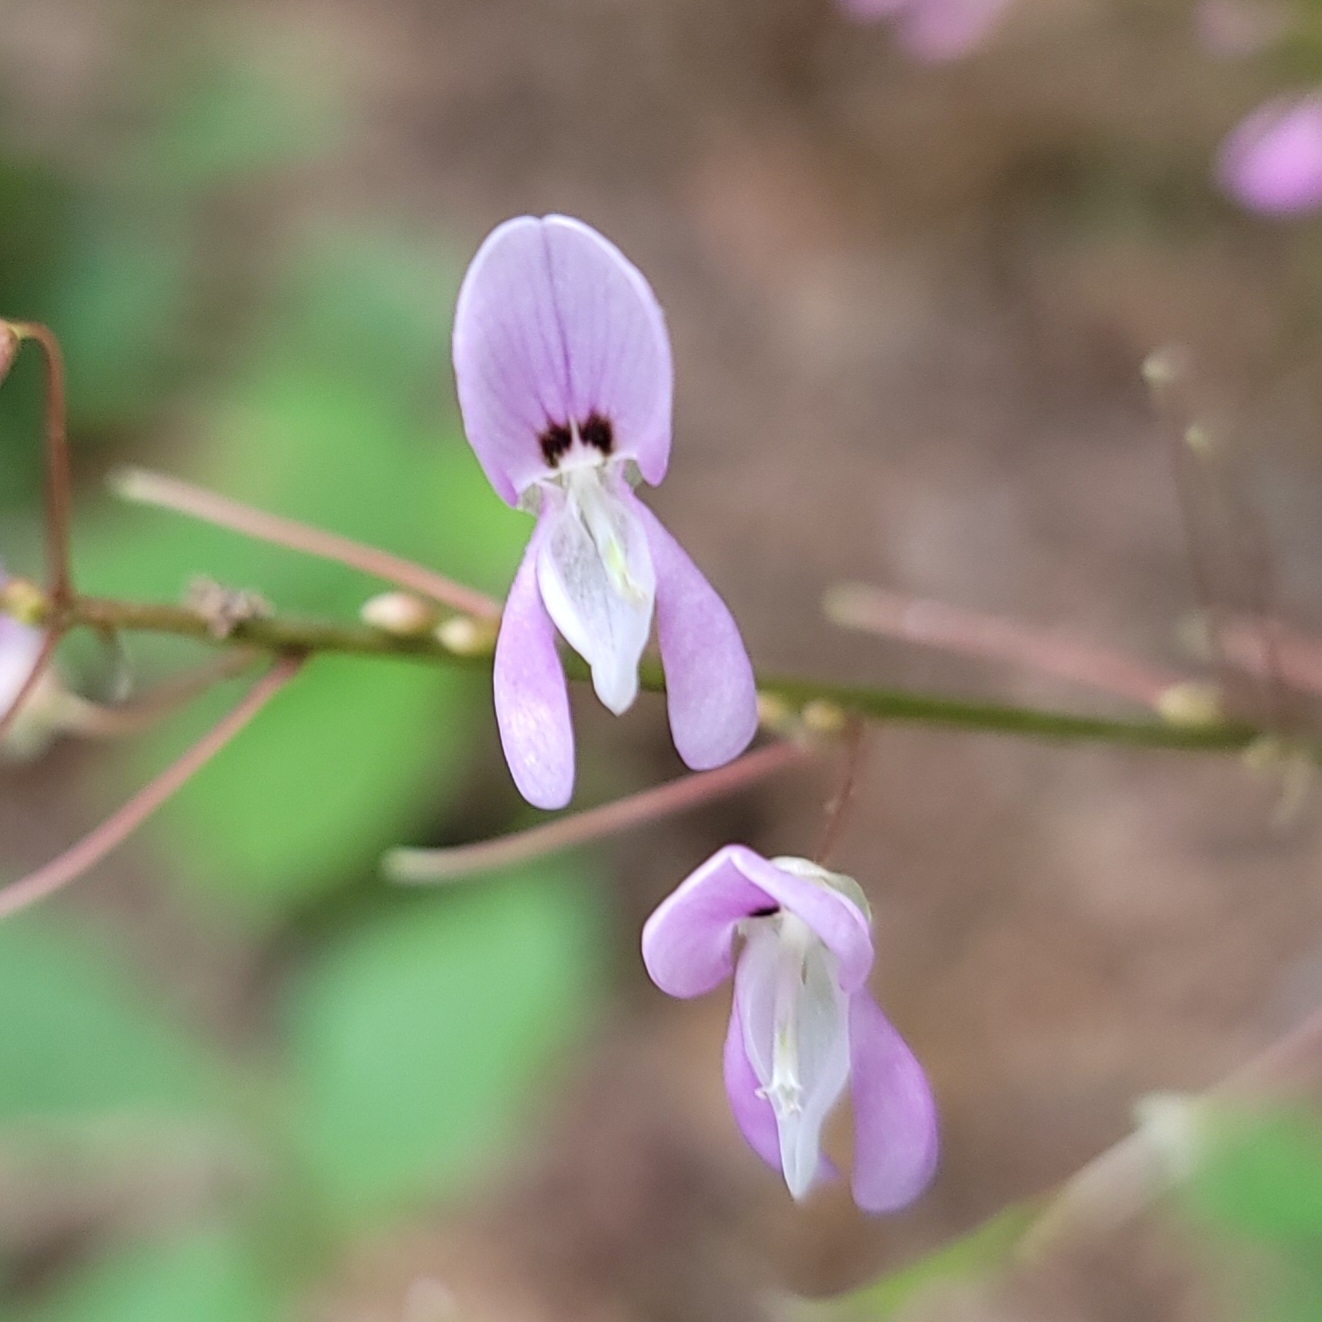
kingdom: Plantae
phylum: Tracheophyta
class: Magnoliopsida
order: Fabales
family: Fabaceae
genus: Hylodesmum
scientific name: Hylodesmum nudiflorum
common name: Bare-stemmed tick-trefoil
